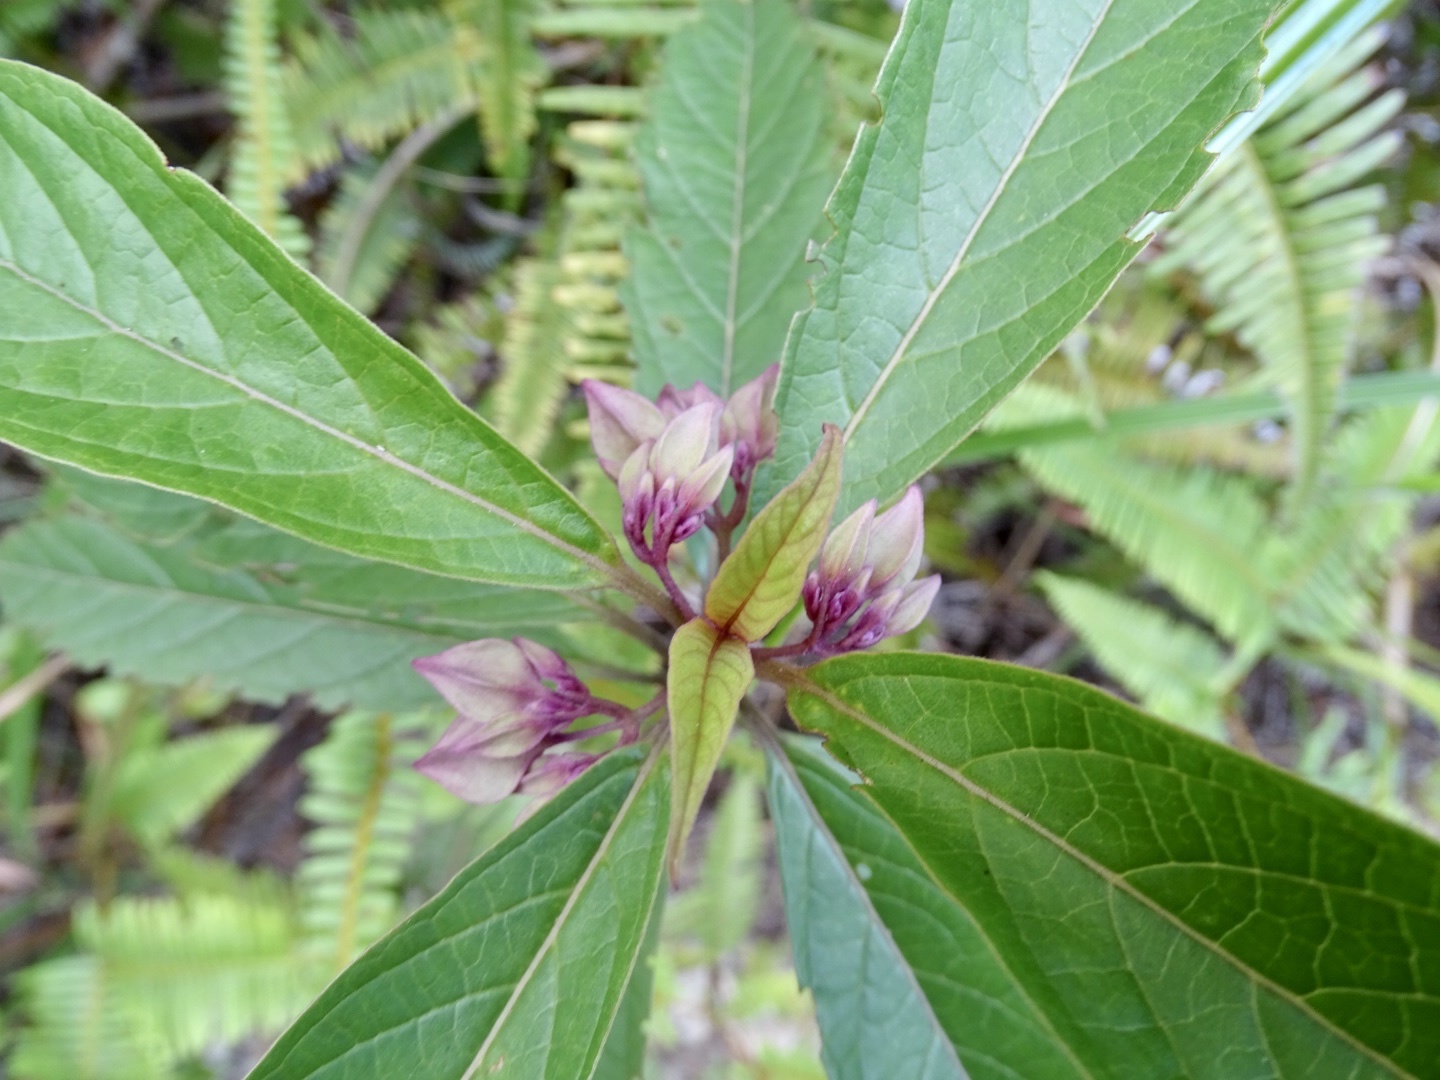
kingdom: Plantae
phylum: Tracheophyta
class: Magnoliopsida
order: Lamiales
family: Lamiaceae
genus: Clerodendrum
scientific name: Clerodendrum fortunatum
